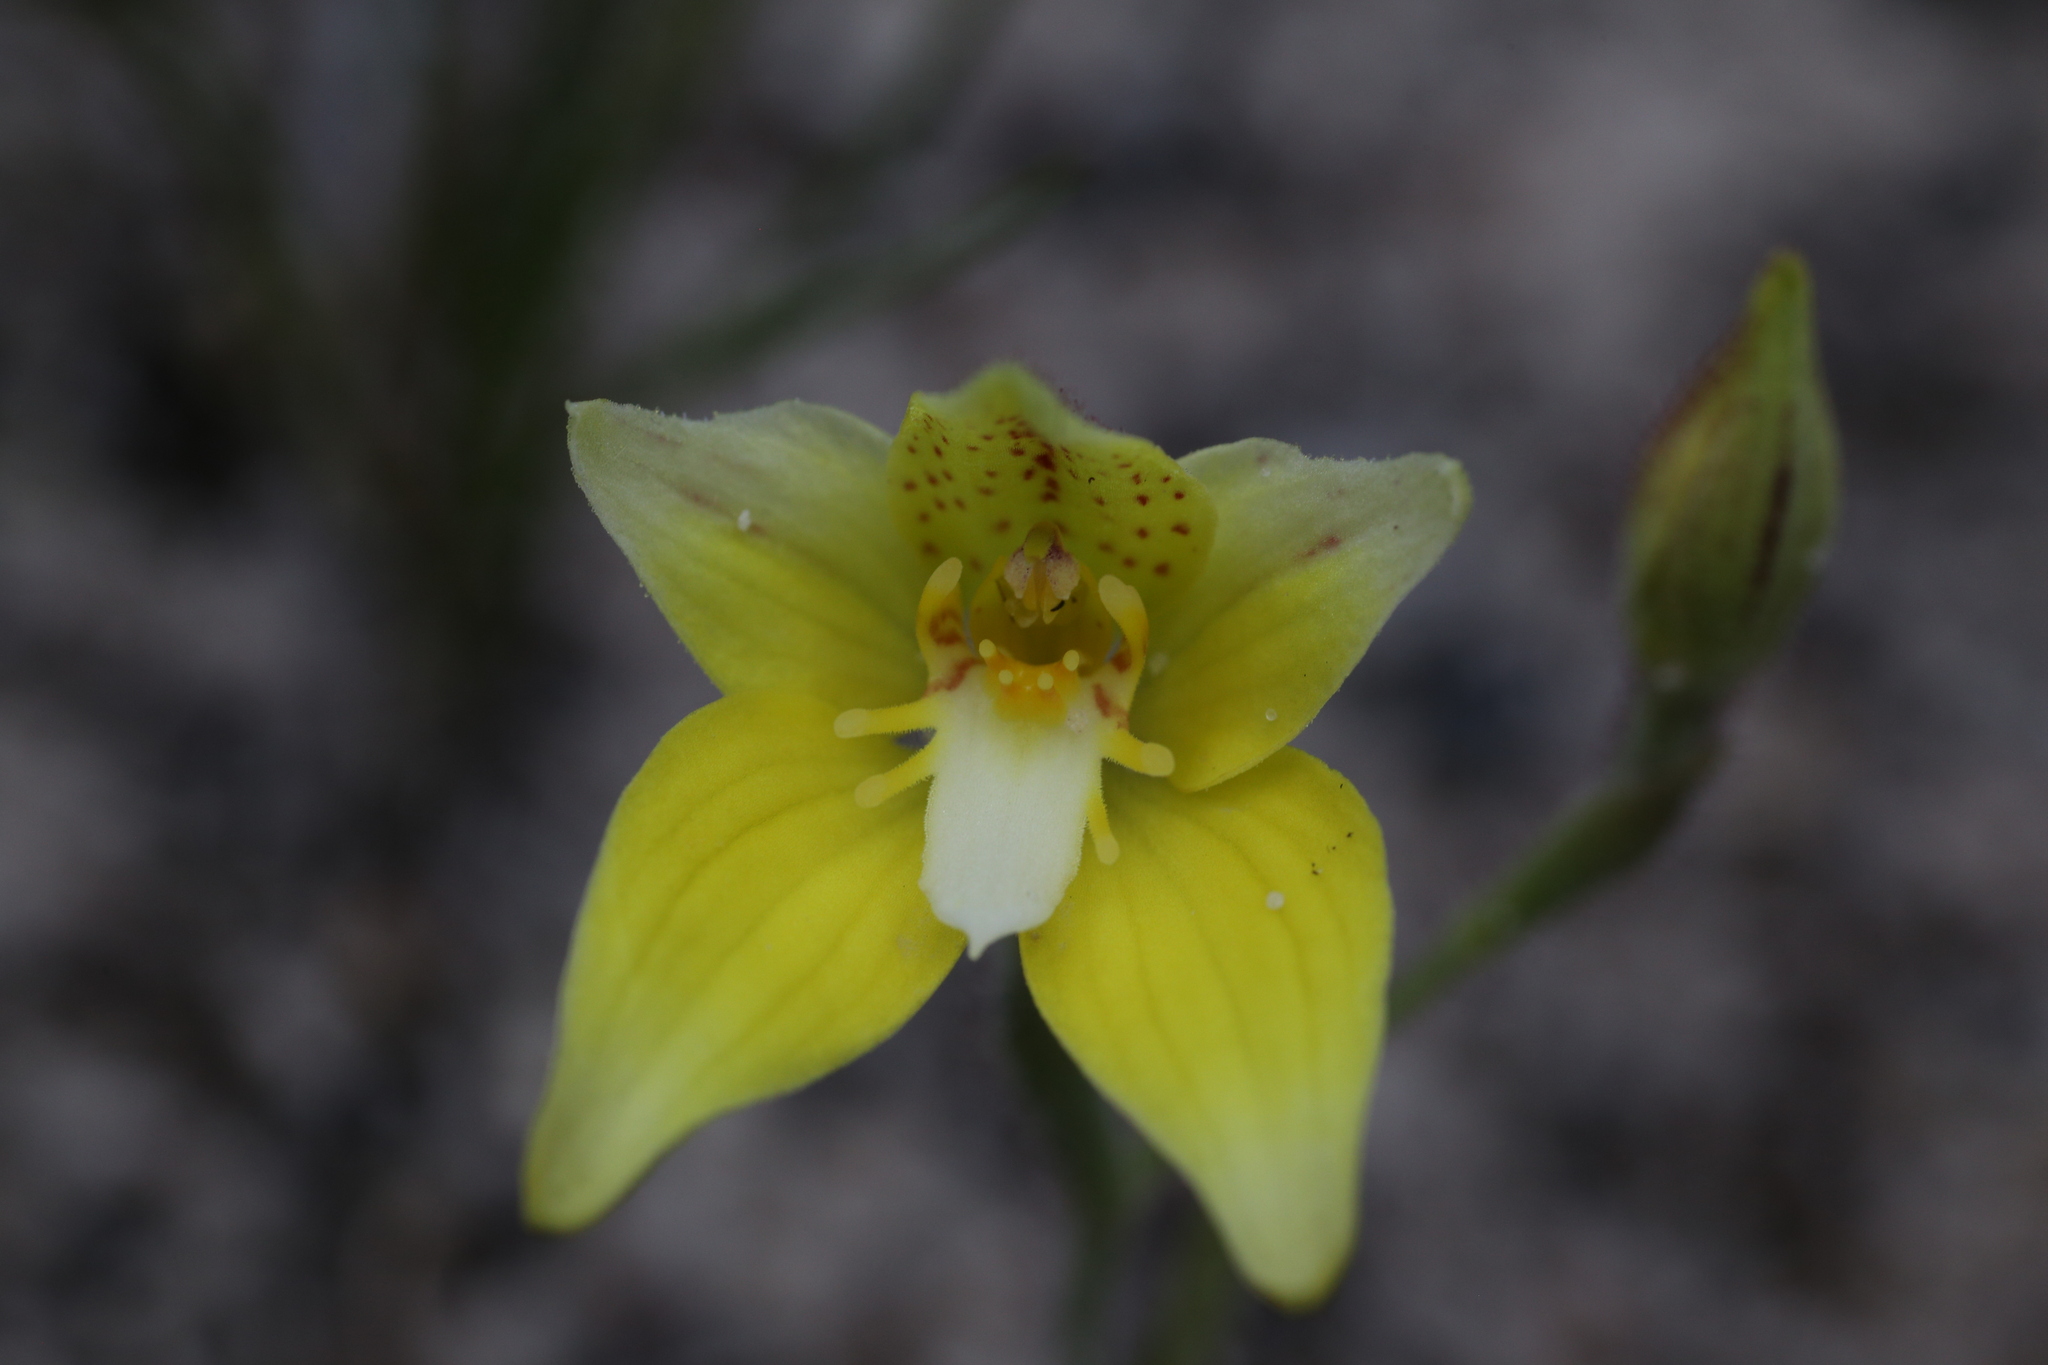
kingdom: Plantae
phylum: Tracheophyta
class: Liliopsida
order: Asparagales
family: Orchidaceae
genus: Caladenia
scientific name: Caladenia flava
